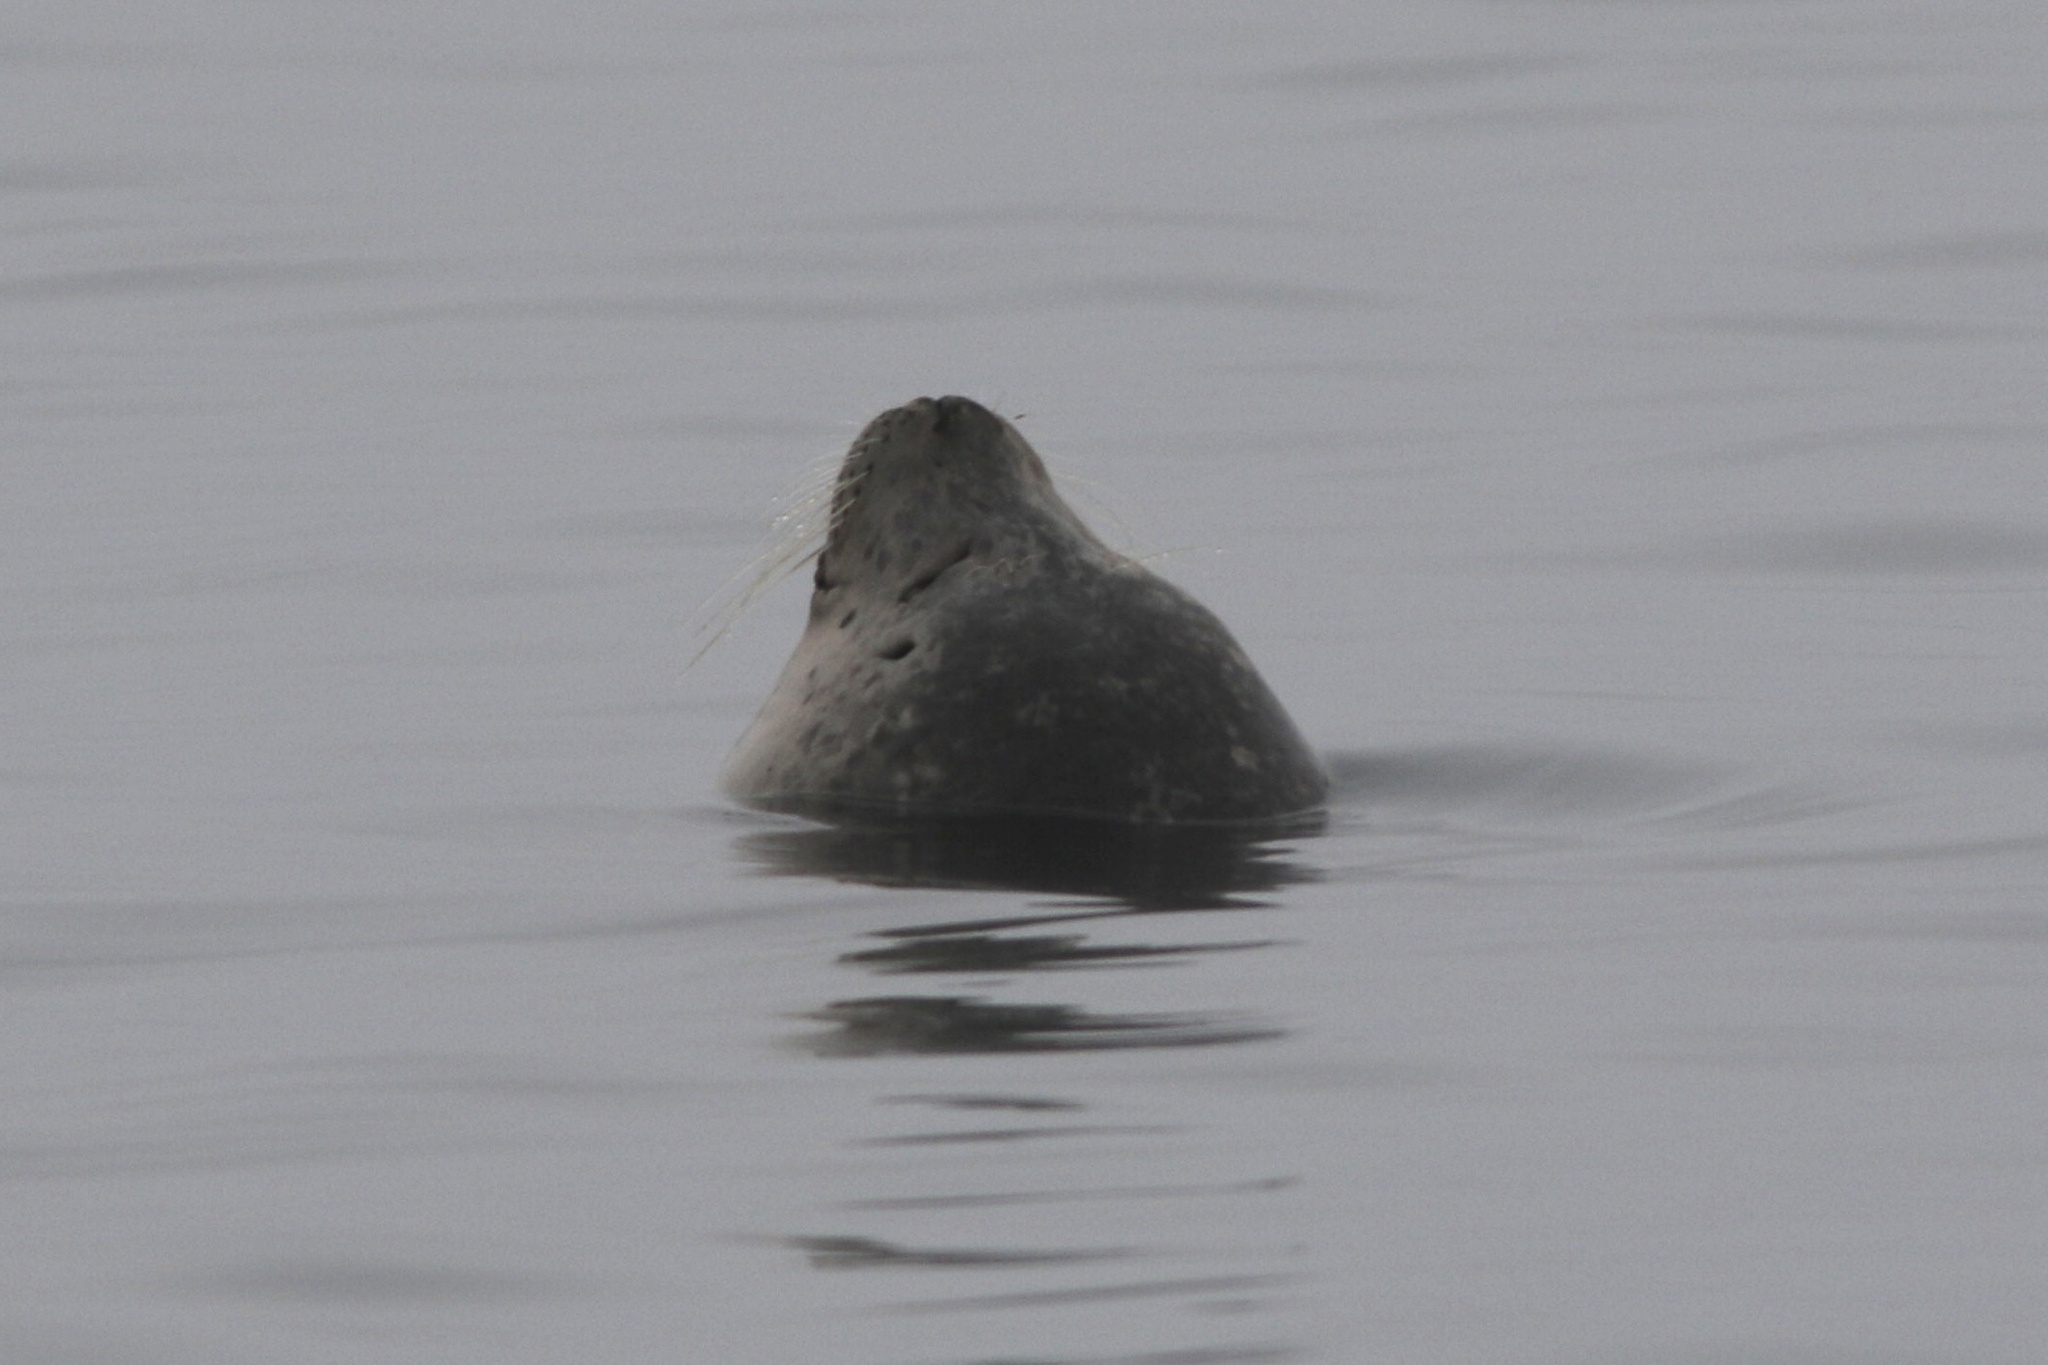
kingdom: Animalia
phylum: Chordata
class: Mammalia
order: Carnivora
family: Phocidae
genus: Phoca
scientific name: Phoca vitulina
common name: Harbor seal
